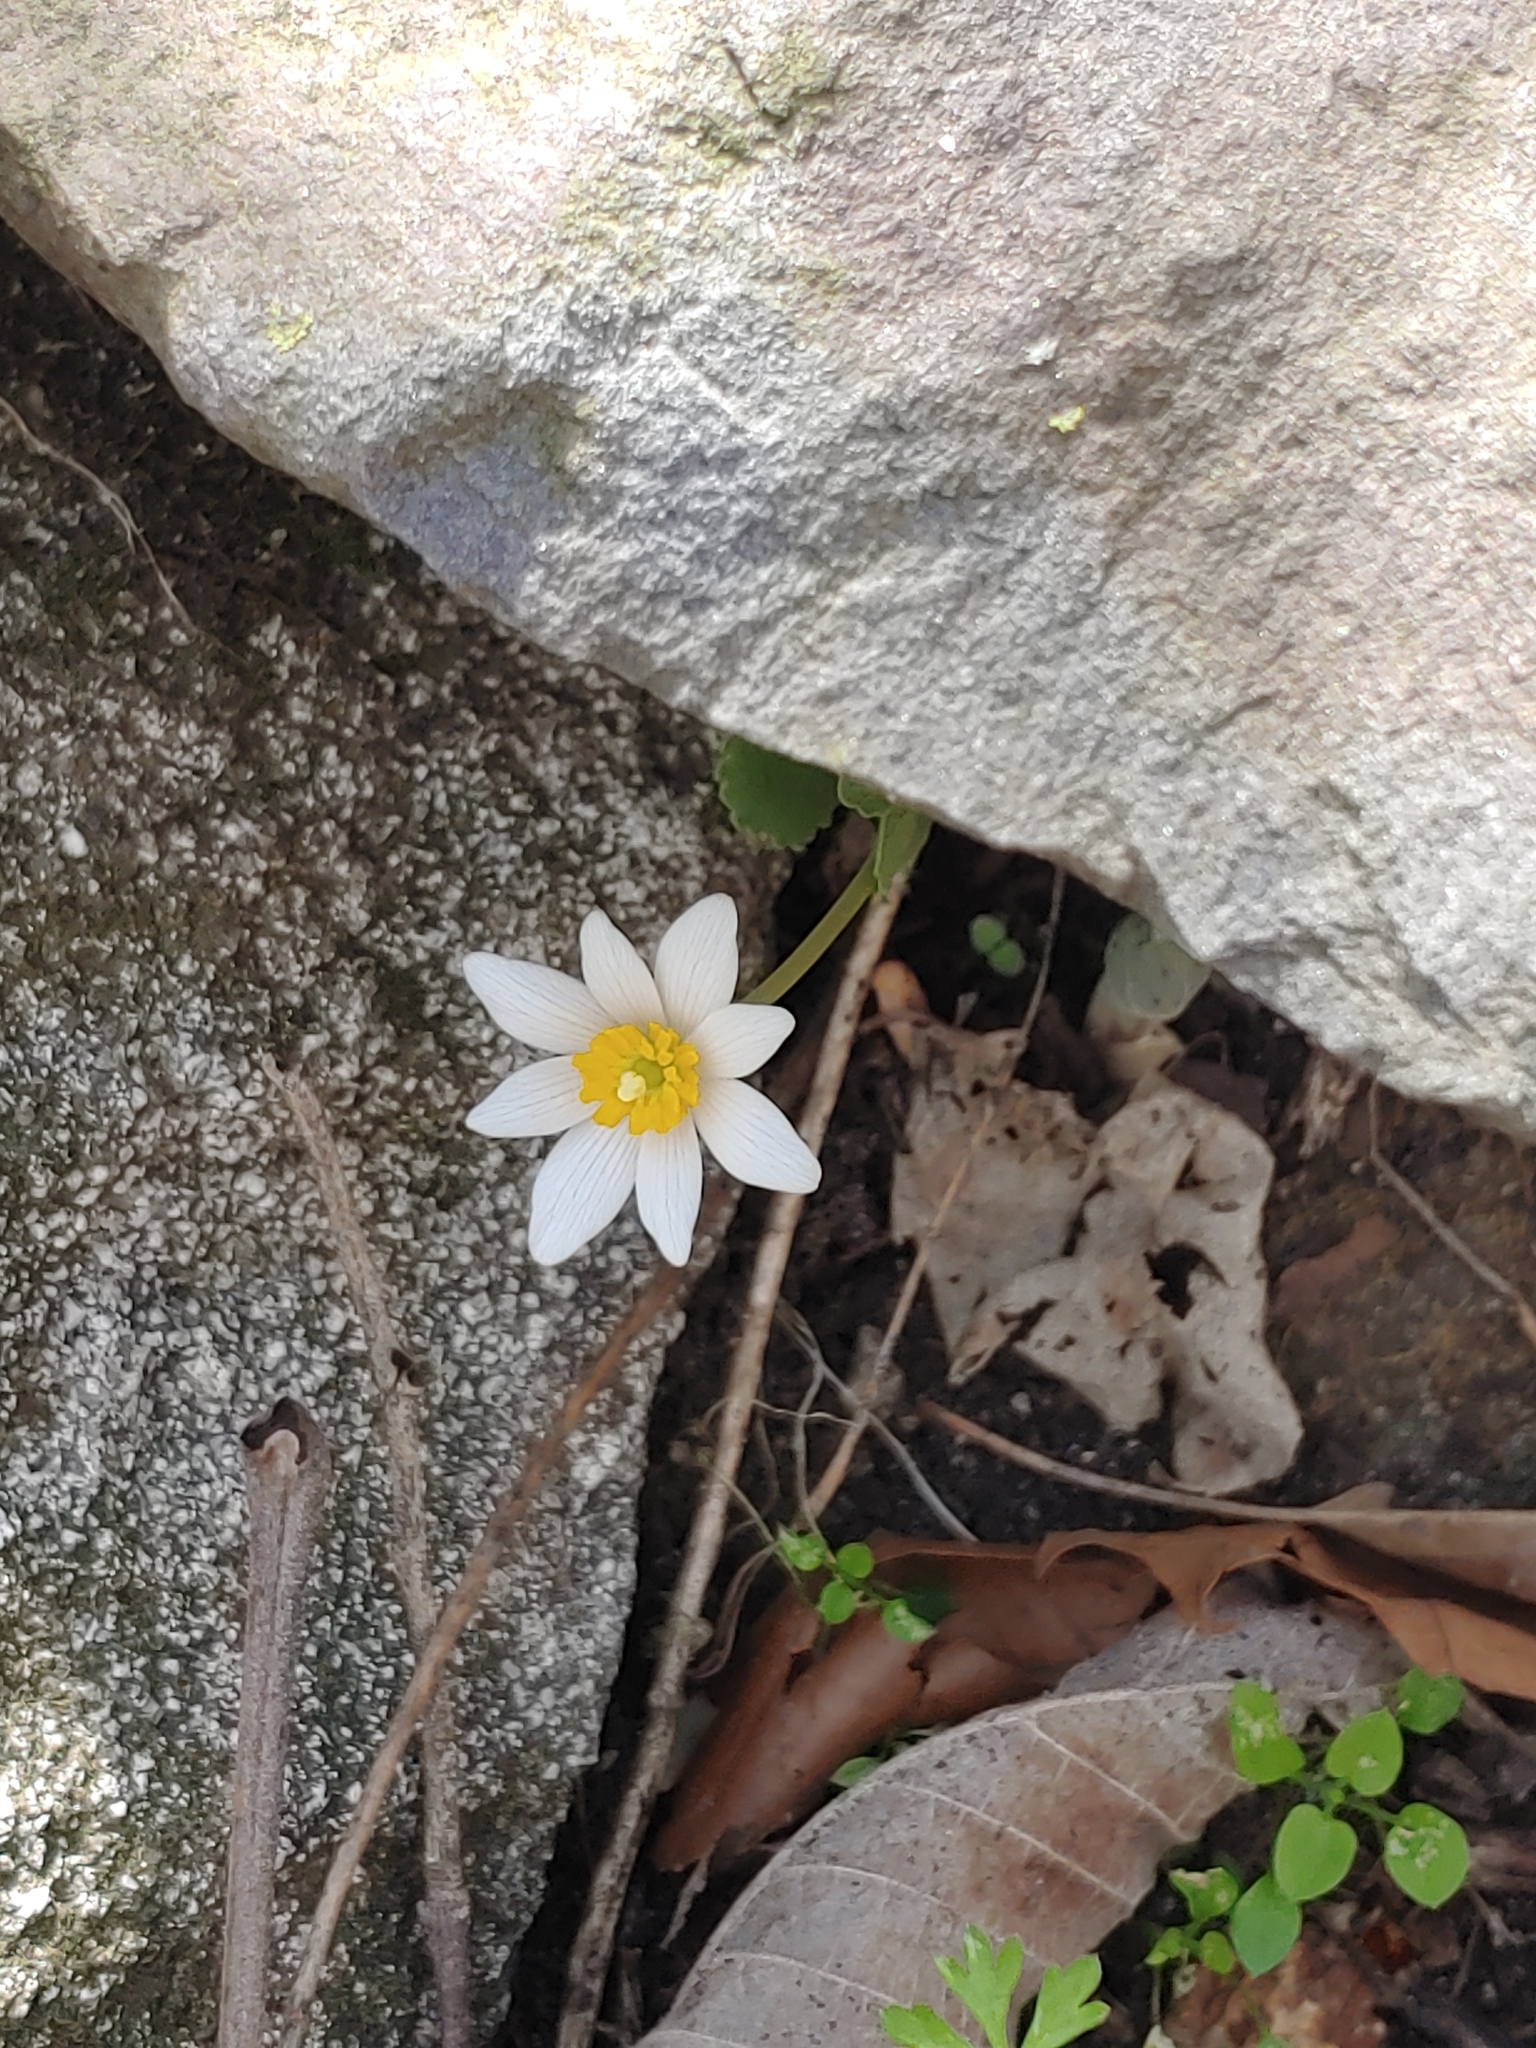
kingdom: Plantae
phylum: Tracheophyta
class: Magnoliopsida
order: Ranunculales
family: Papaveraceae
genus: Sanguinaria
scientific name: Sanguinaria canadensis
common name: Bloodroot
